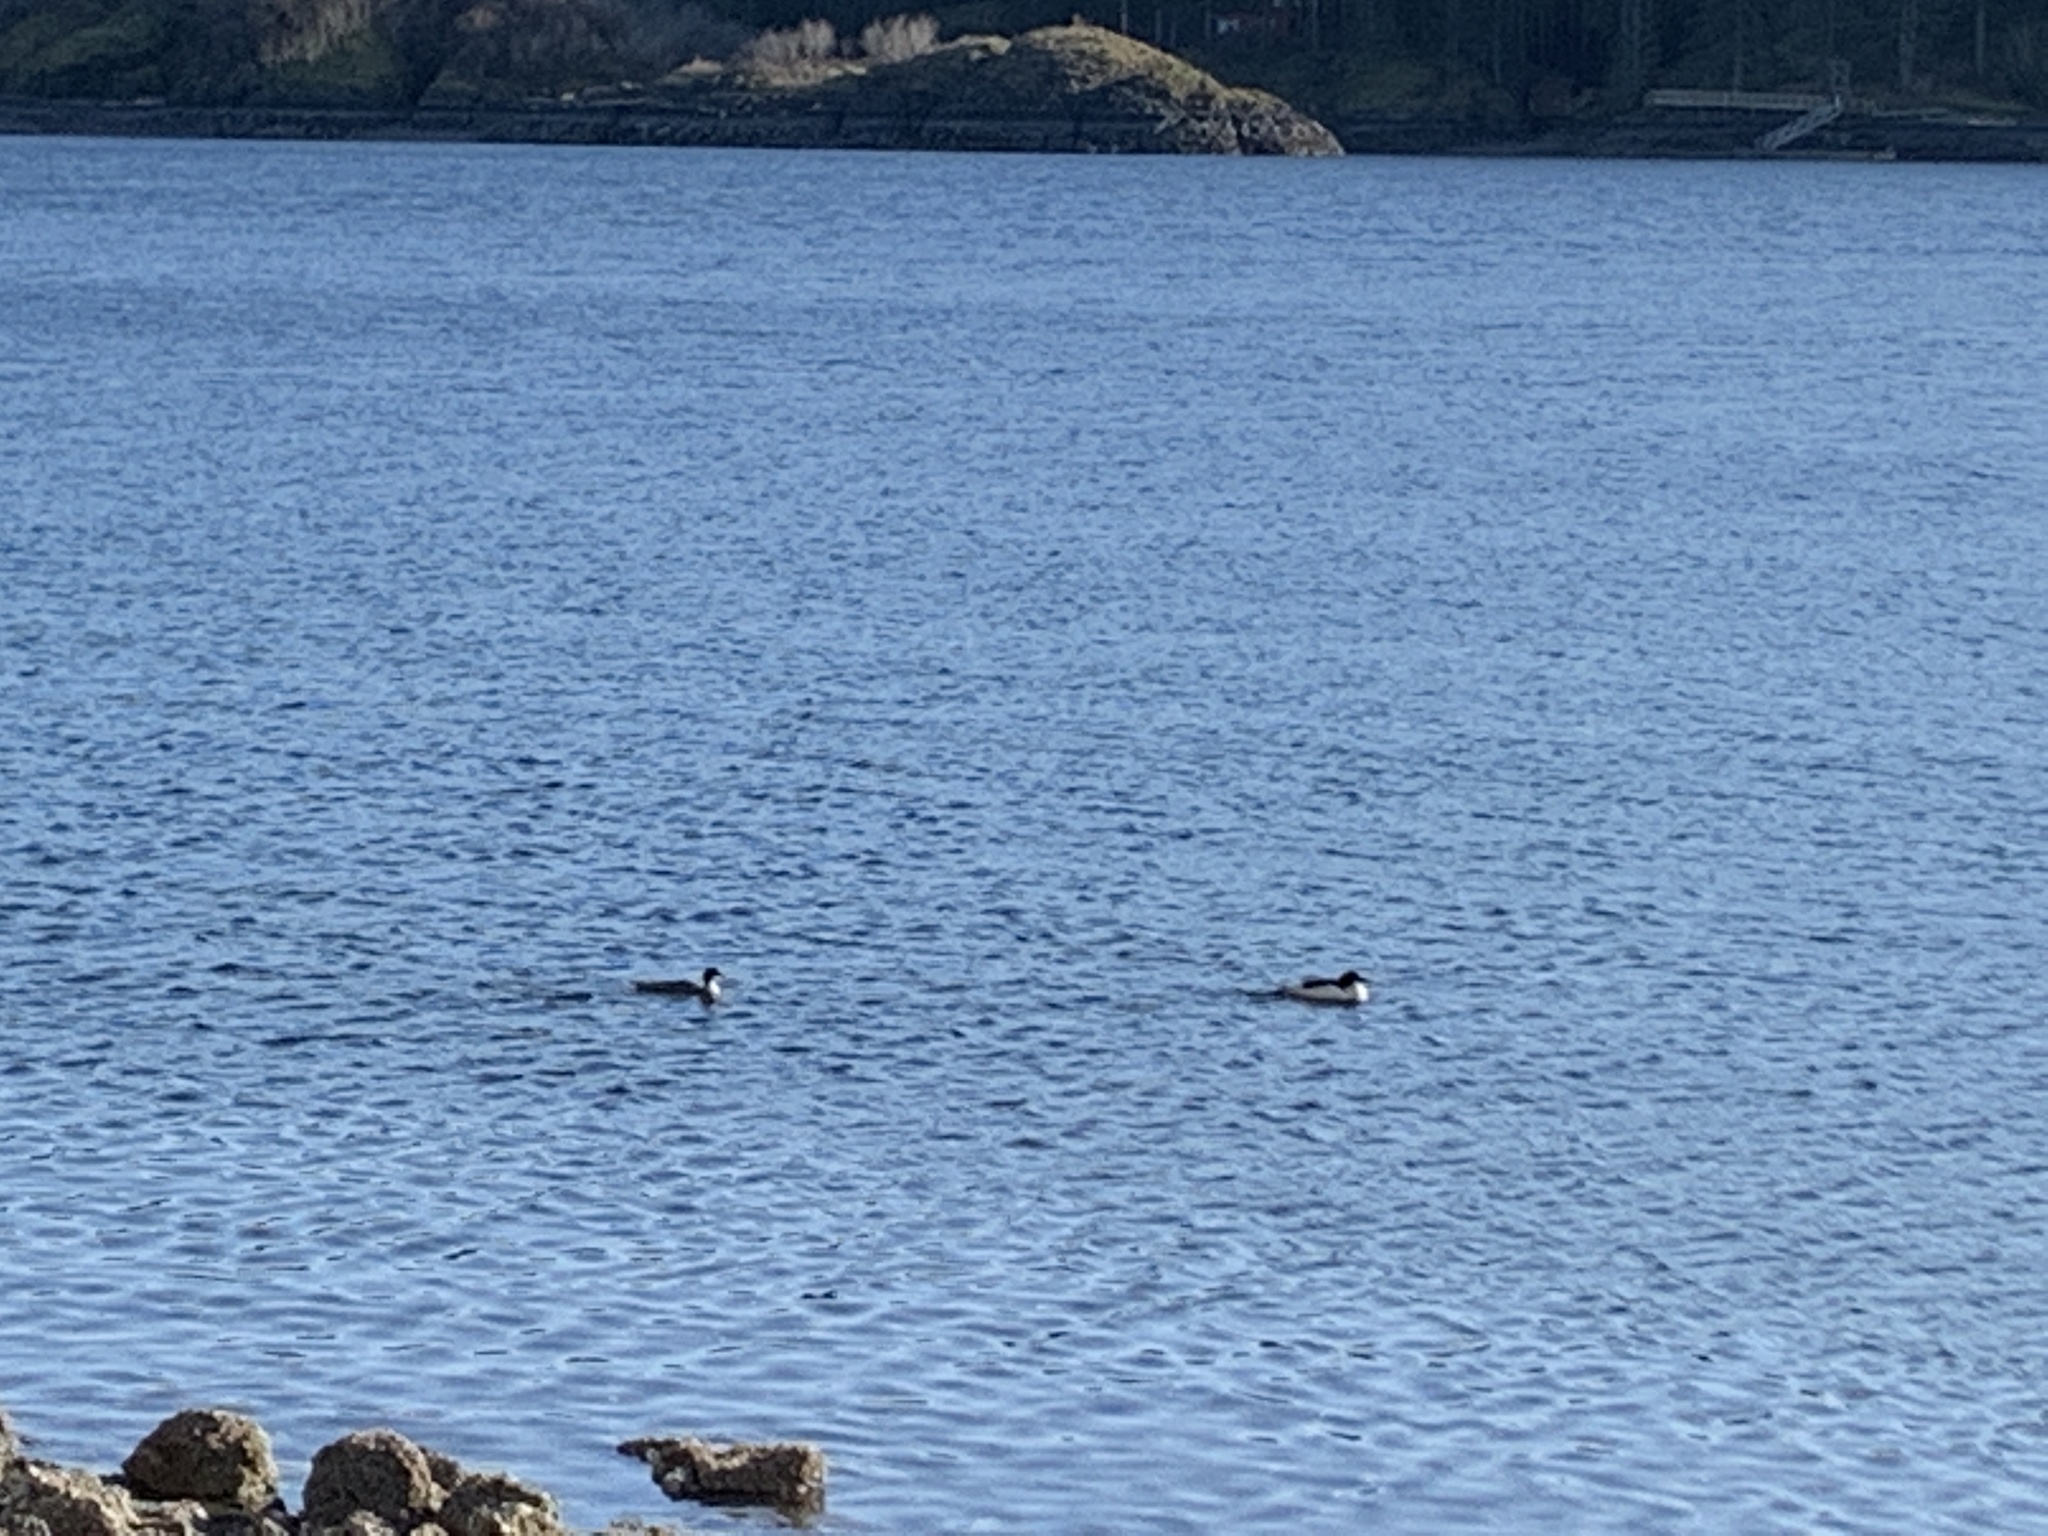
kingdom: Animalia
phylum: Chordata
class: Aves
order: Anseriformes
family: Anatidae
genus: Mergus
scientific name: Mergus merganser
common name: Common merganser
